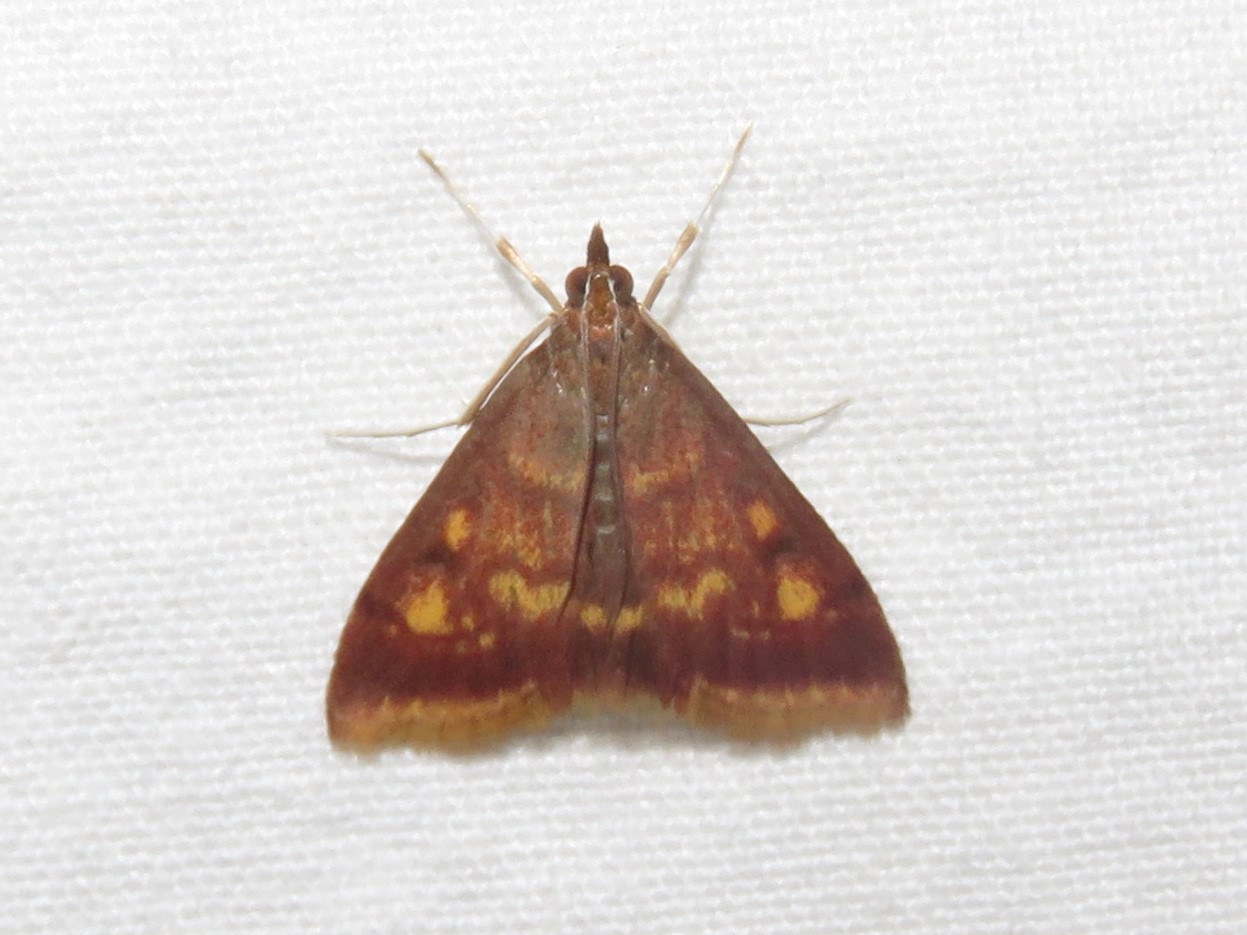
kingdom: Animalia
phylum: Arthropoda
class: Insecta
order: Lepidoptera
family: Crambidae
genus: Pyrausta
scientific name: Pyrausta acrionalis
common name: Mint-loving pyrausta moth
